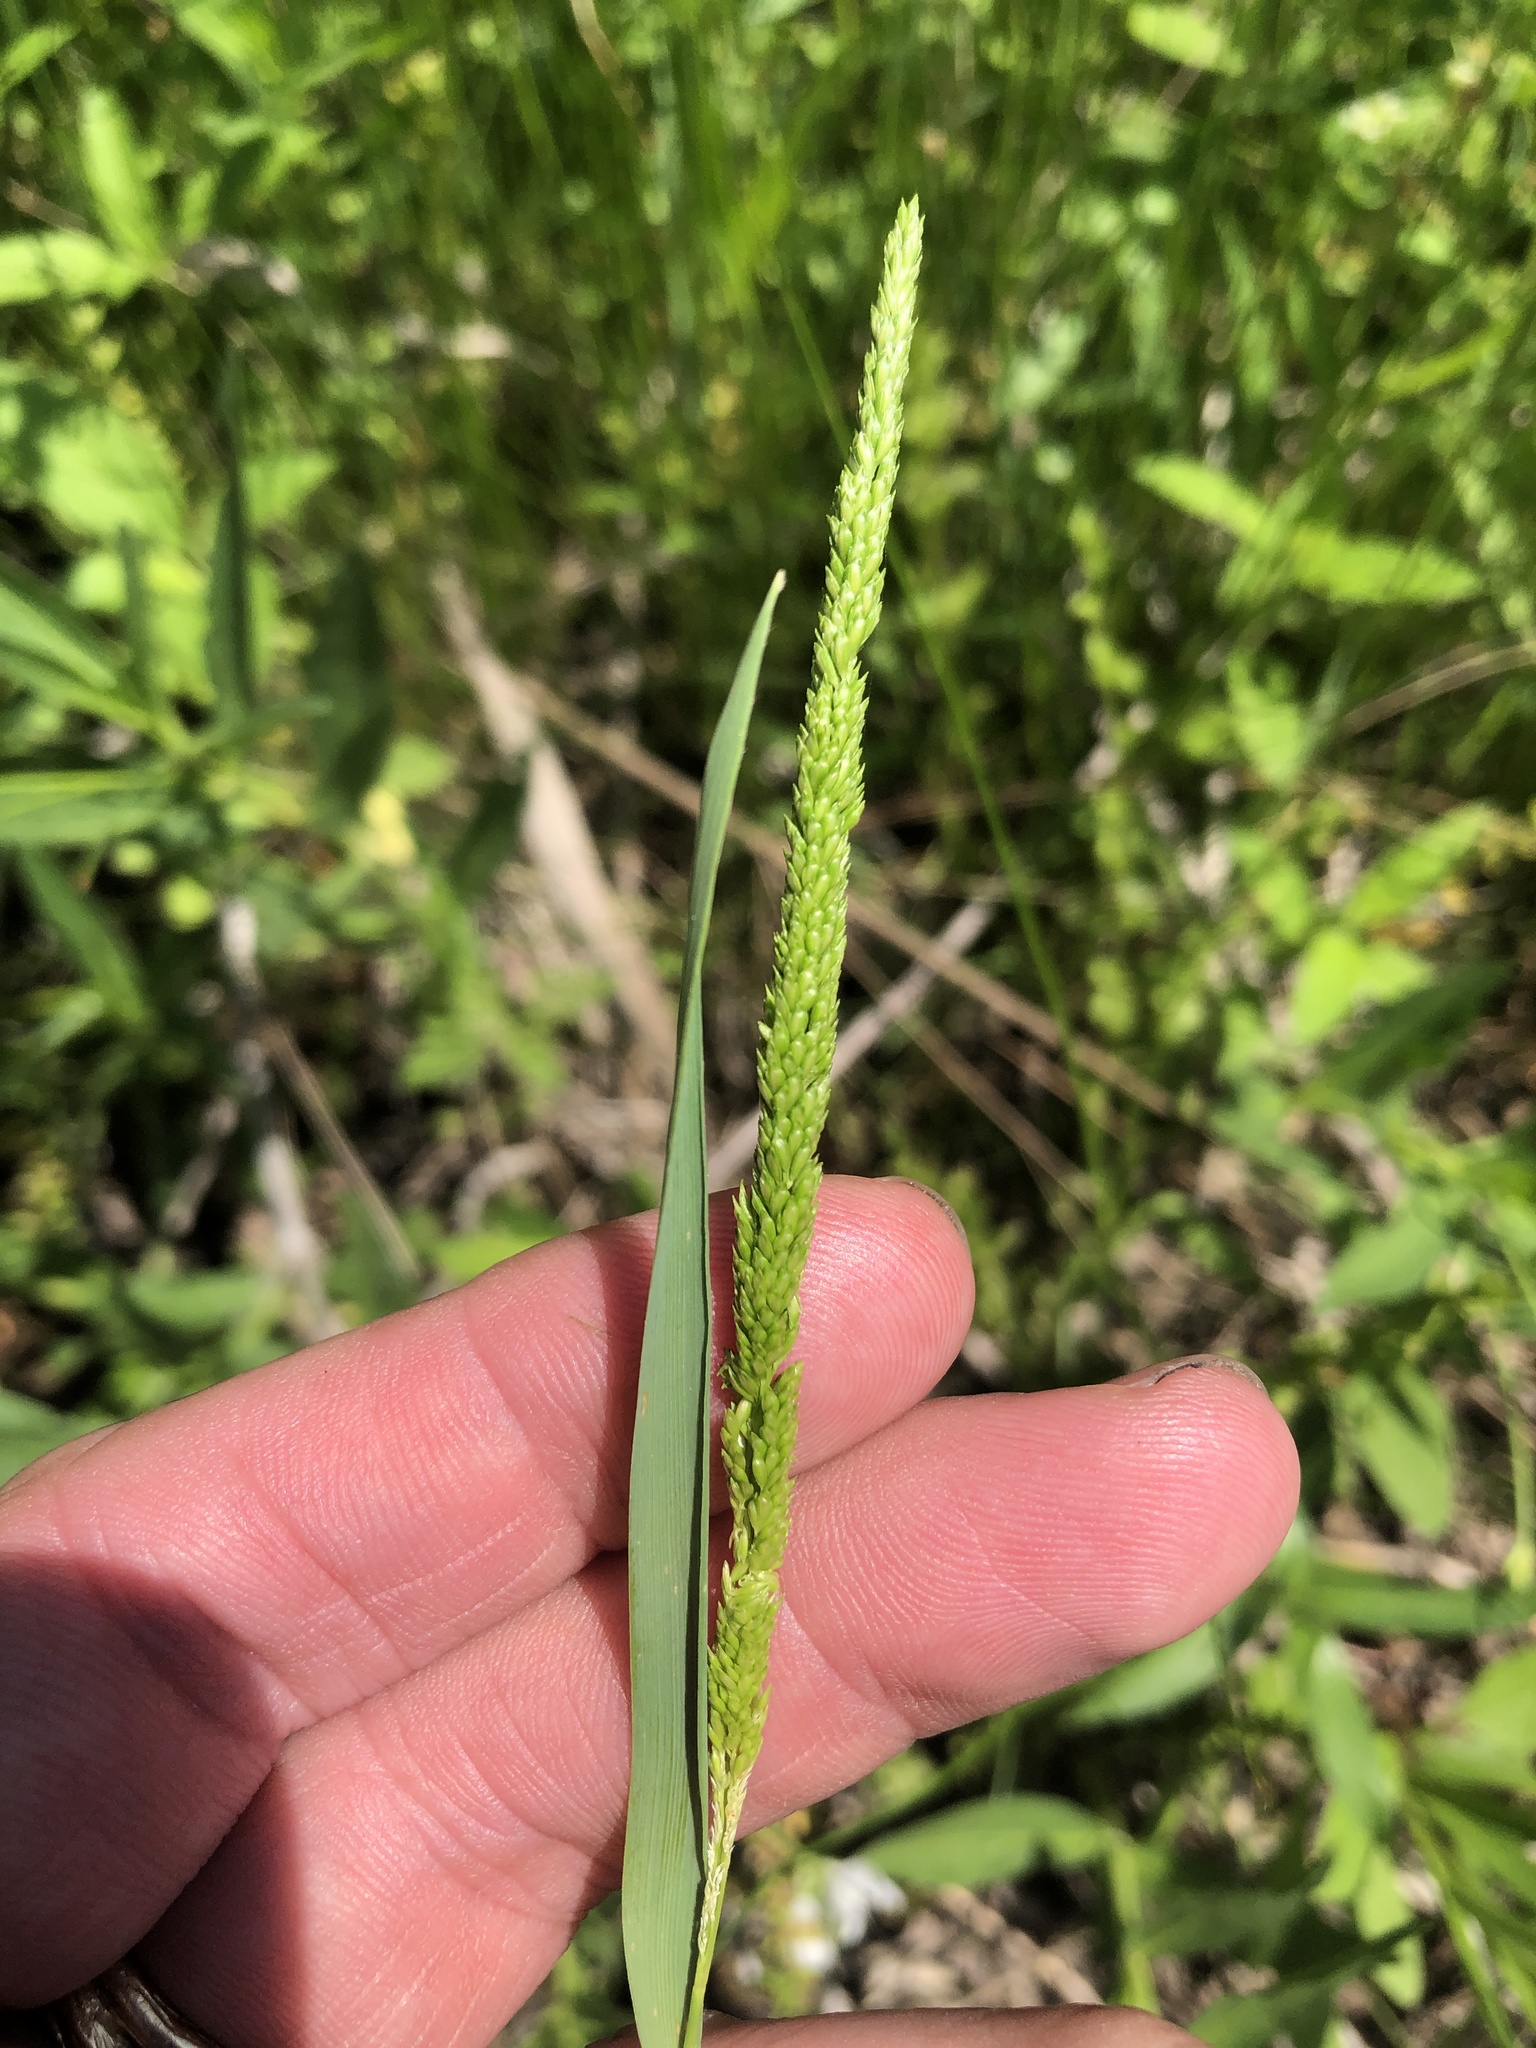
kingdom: Plantae
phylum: Tracheophyta
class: Liliopsida
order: Poales
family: Poaceae
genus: Sphenopholis
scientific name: Sphenopholis obtusata
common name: Prairie grass
